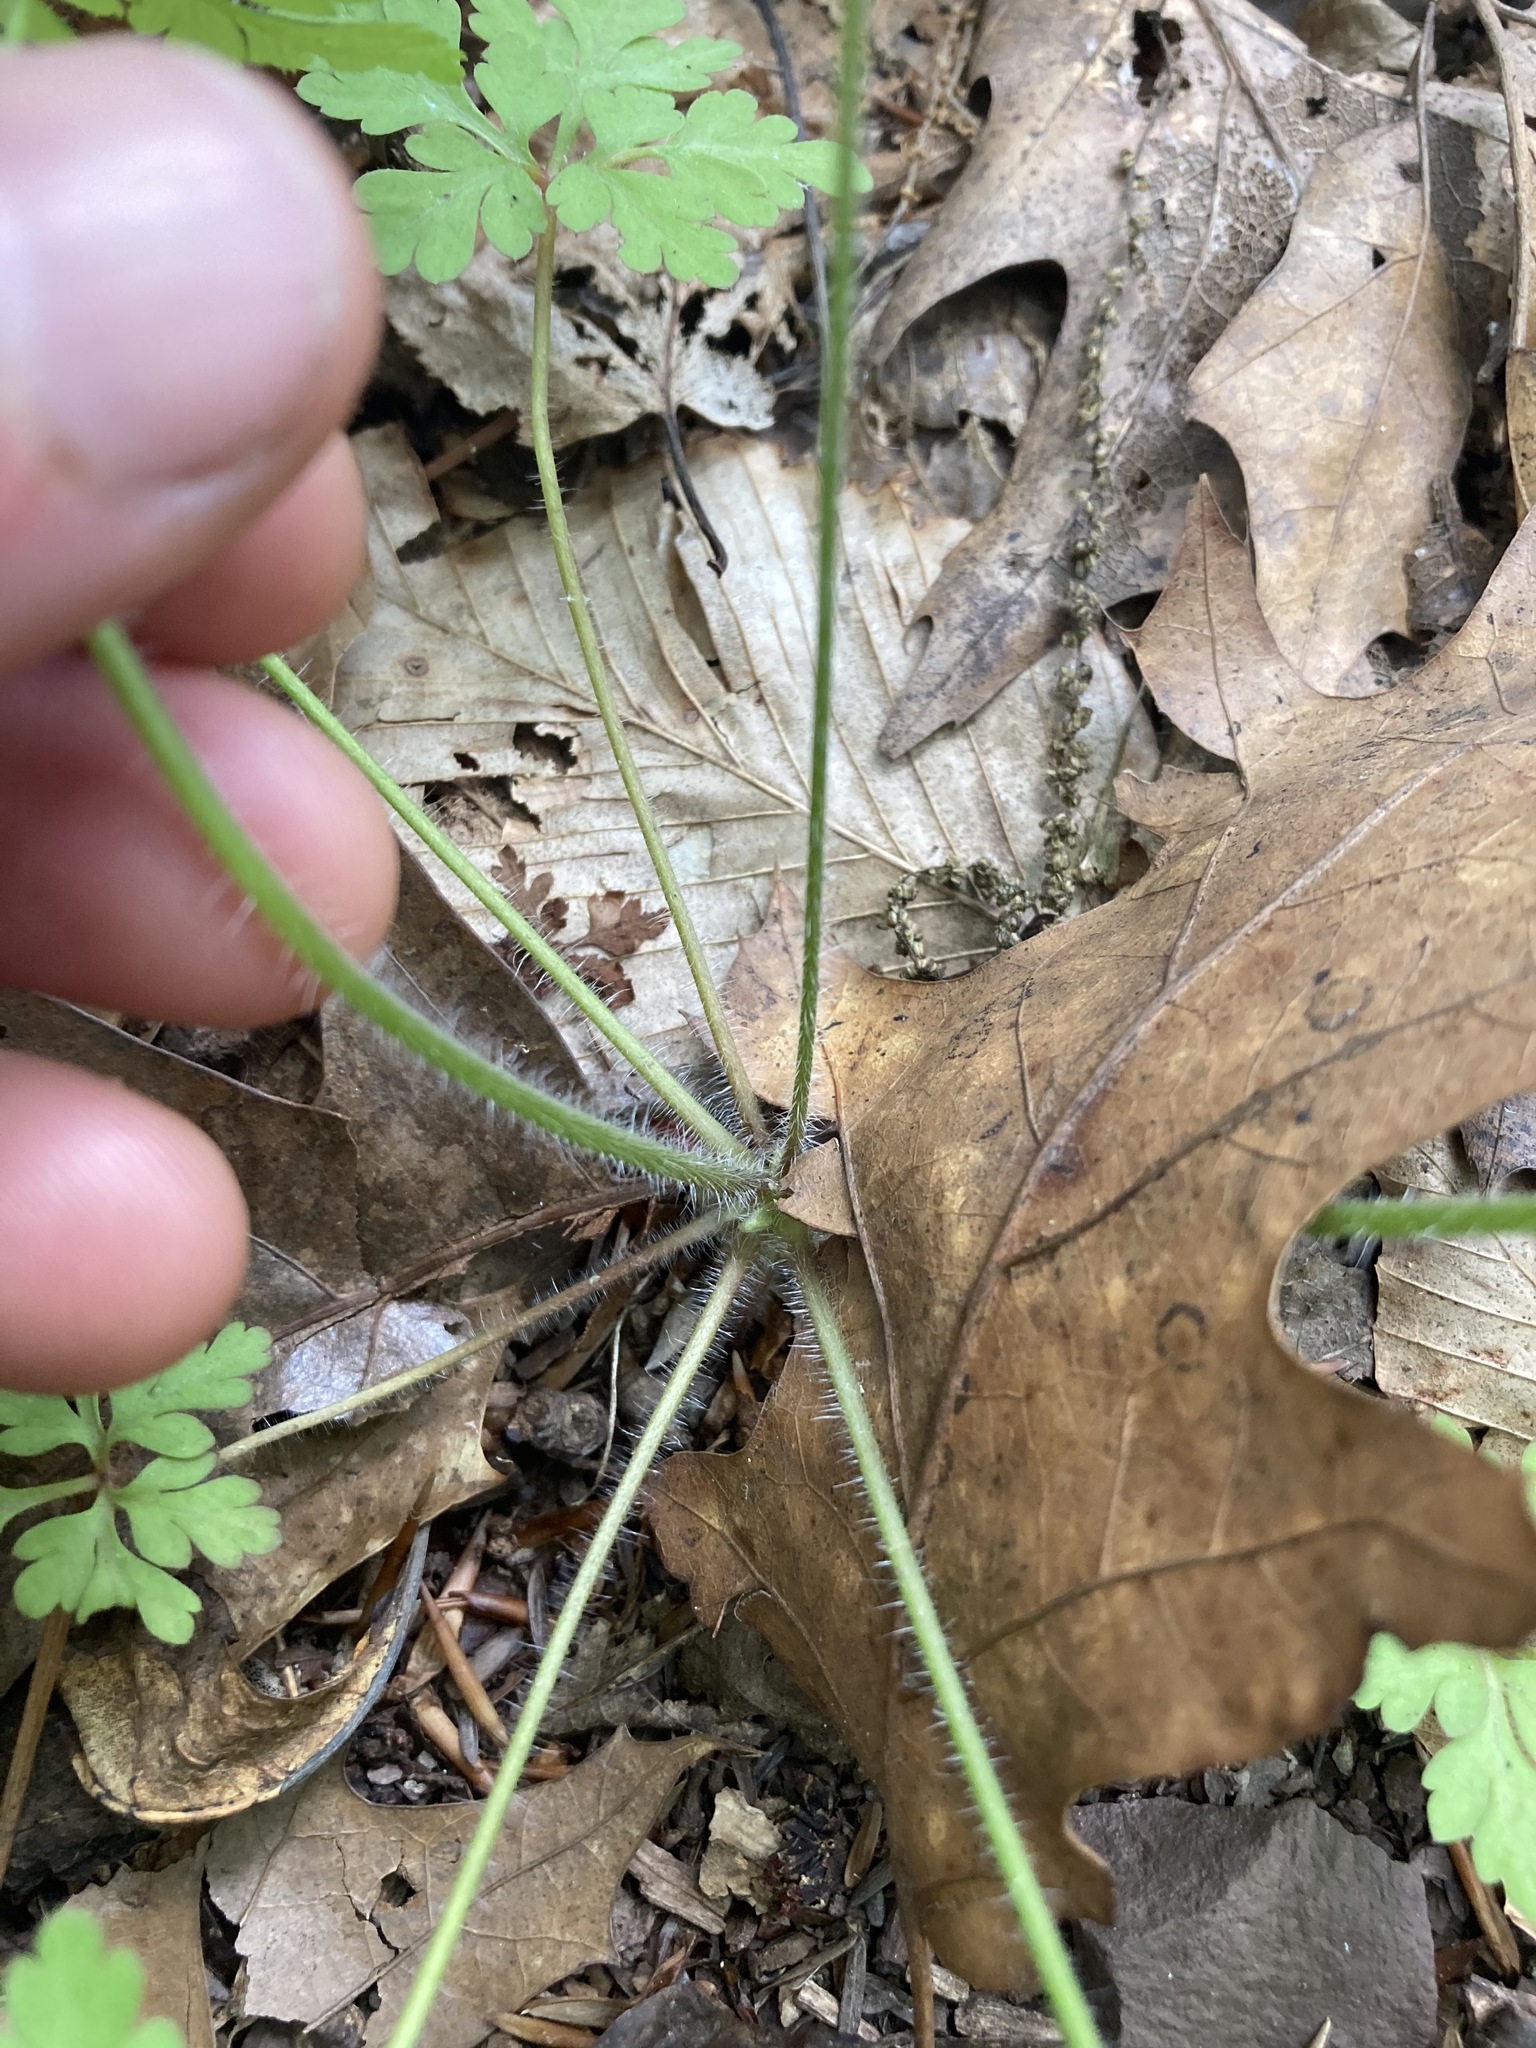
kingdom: Plantae
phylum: Tracheophyta
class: Magnoliopsida
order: Geraniales
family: Geraniaceae
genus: Geranium
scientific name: Geranium robertianum
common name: Herb-robert
